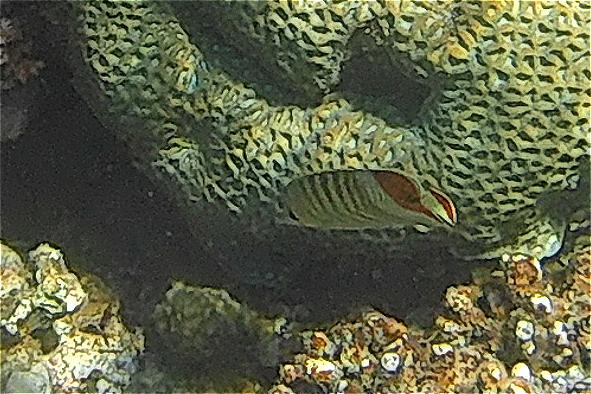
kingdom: Animalia
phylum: Chordata
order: Perciformes
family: Chaetodontidae
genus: Chaetodon
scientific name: Chaetodon paucifasciatus
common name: Crown butterflyfish
